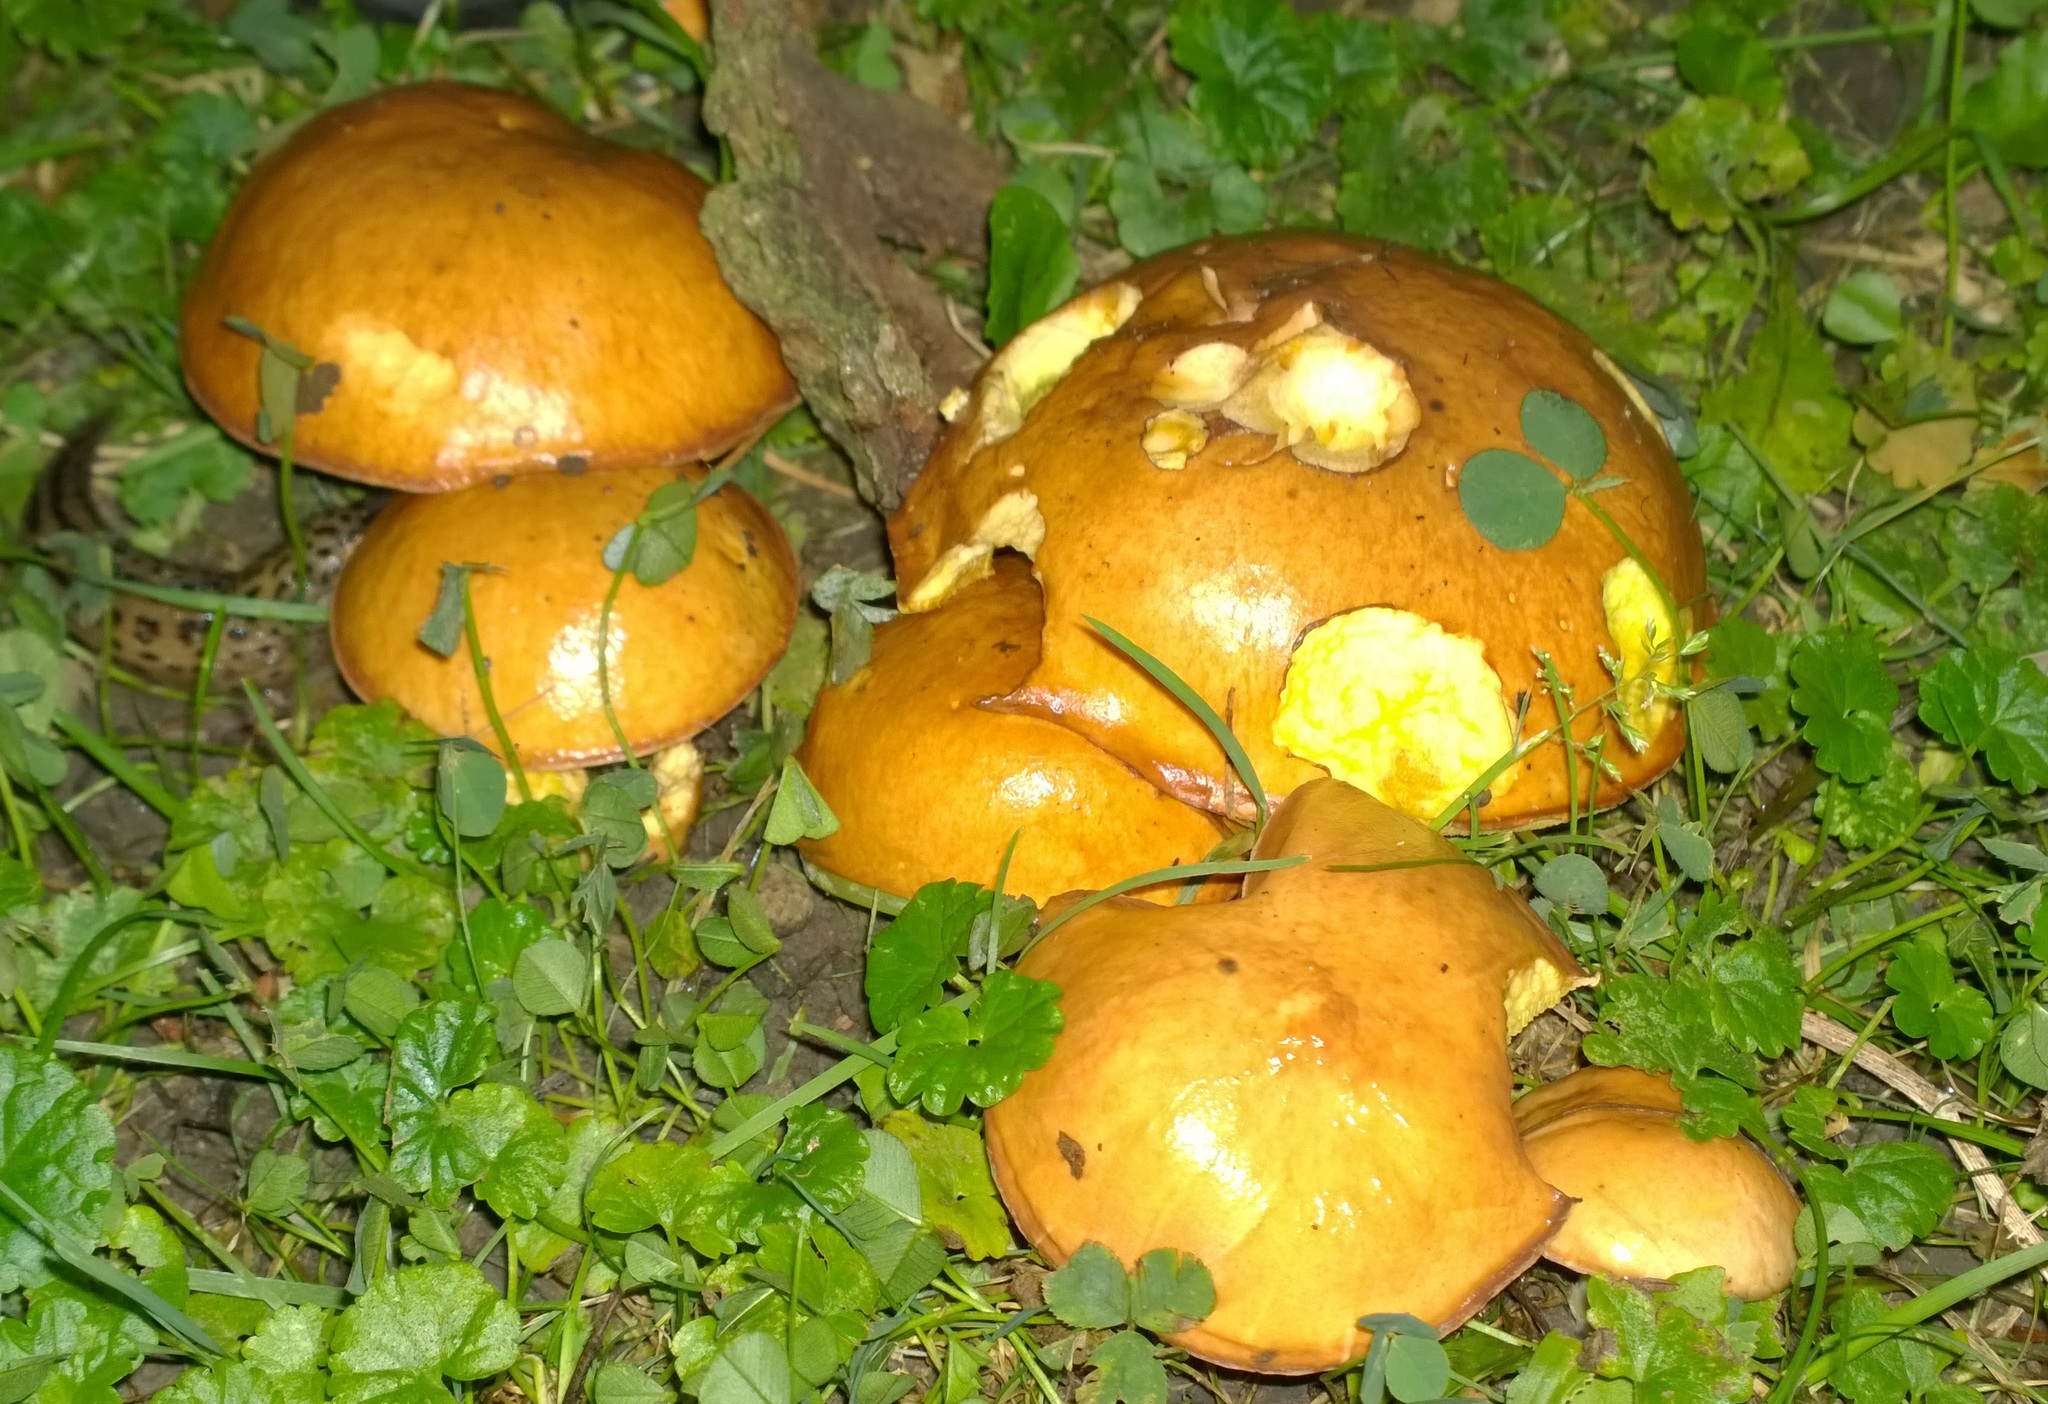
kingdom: Fungi
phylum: Basidiomycota
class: Agaricomycetes
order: Boletales
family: Suillaceae
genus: Suillus
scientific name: Suillus brevipes
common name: Short-stalked suillus
